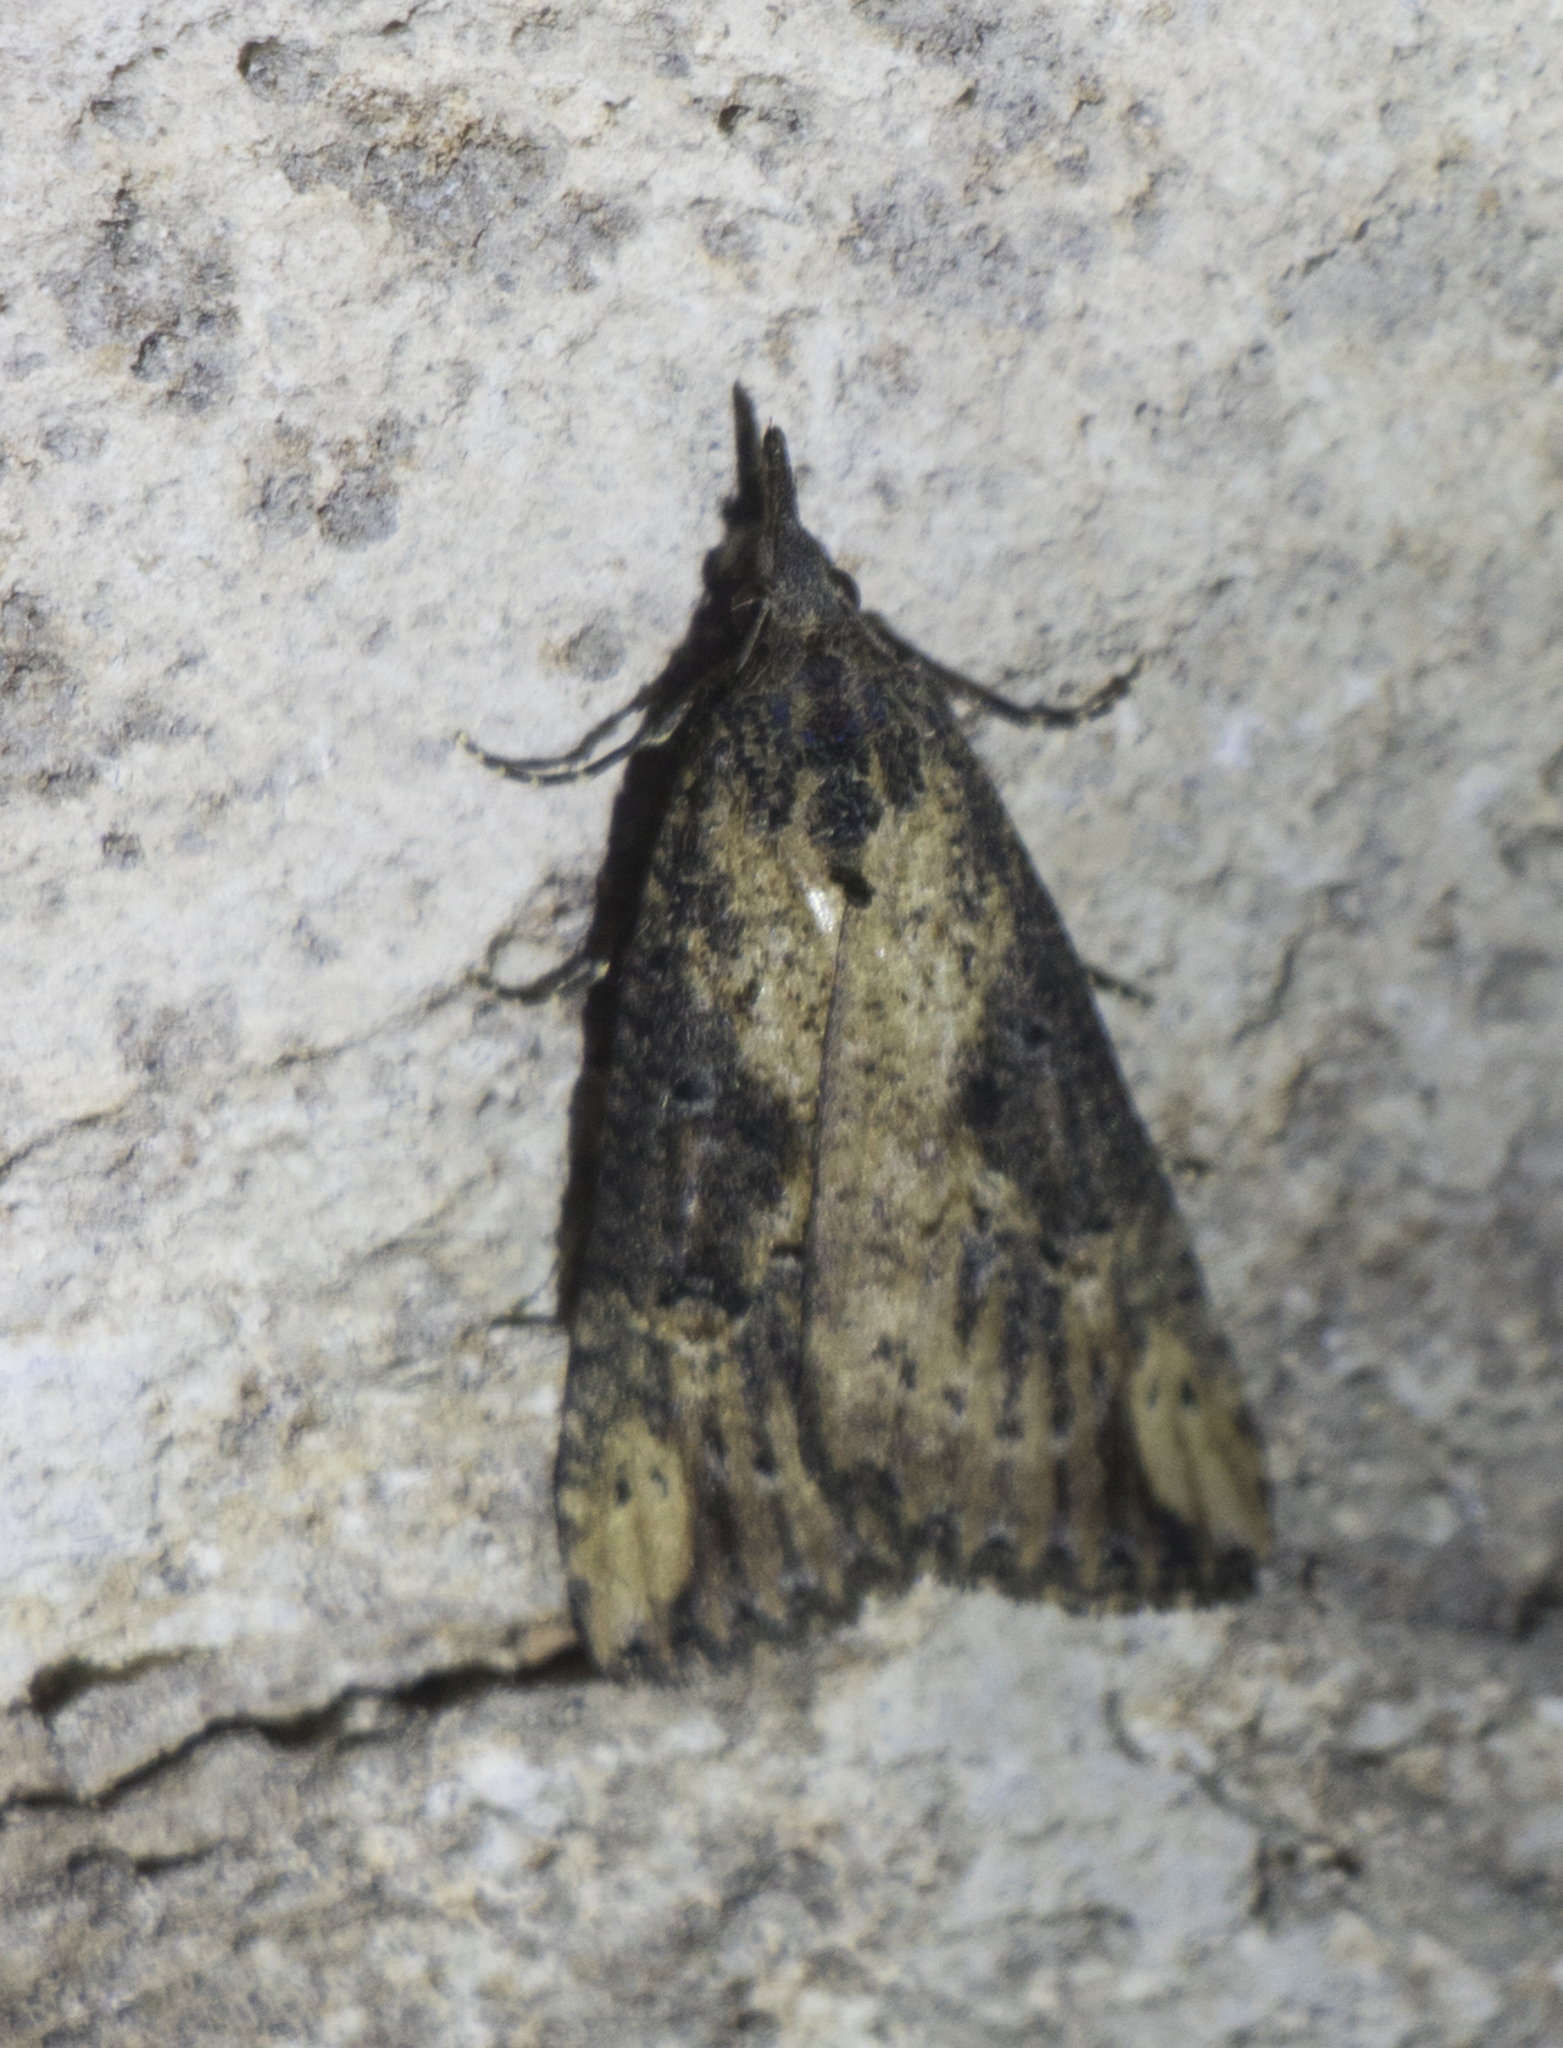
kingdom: Animalia
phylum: Arthropoda
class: Insecta
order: Lepidoptera
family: Erebidae
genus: Hypena
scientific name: Hypena obesalis
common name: Paignton snout
